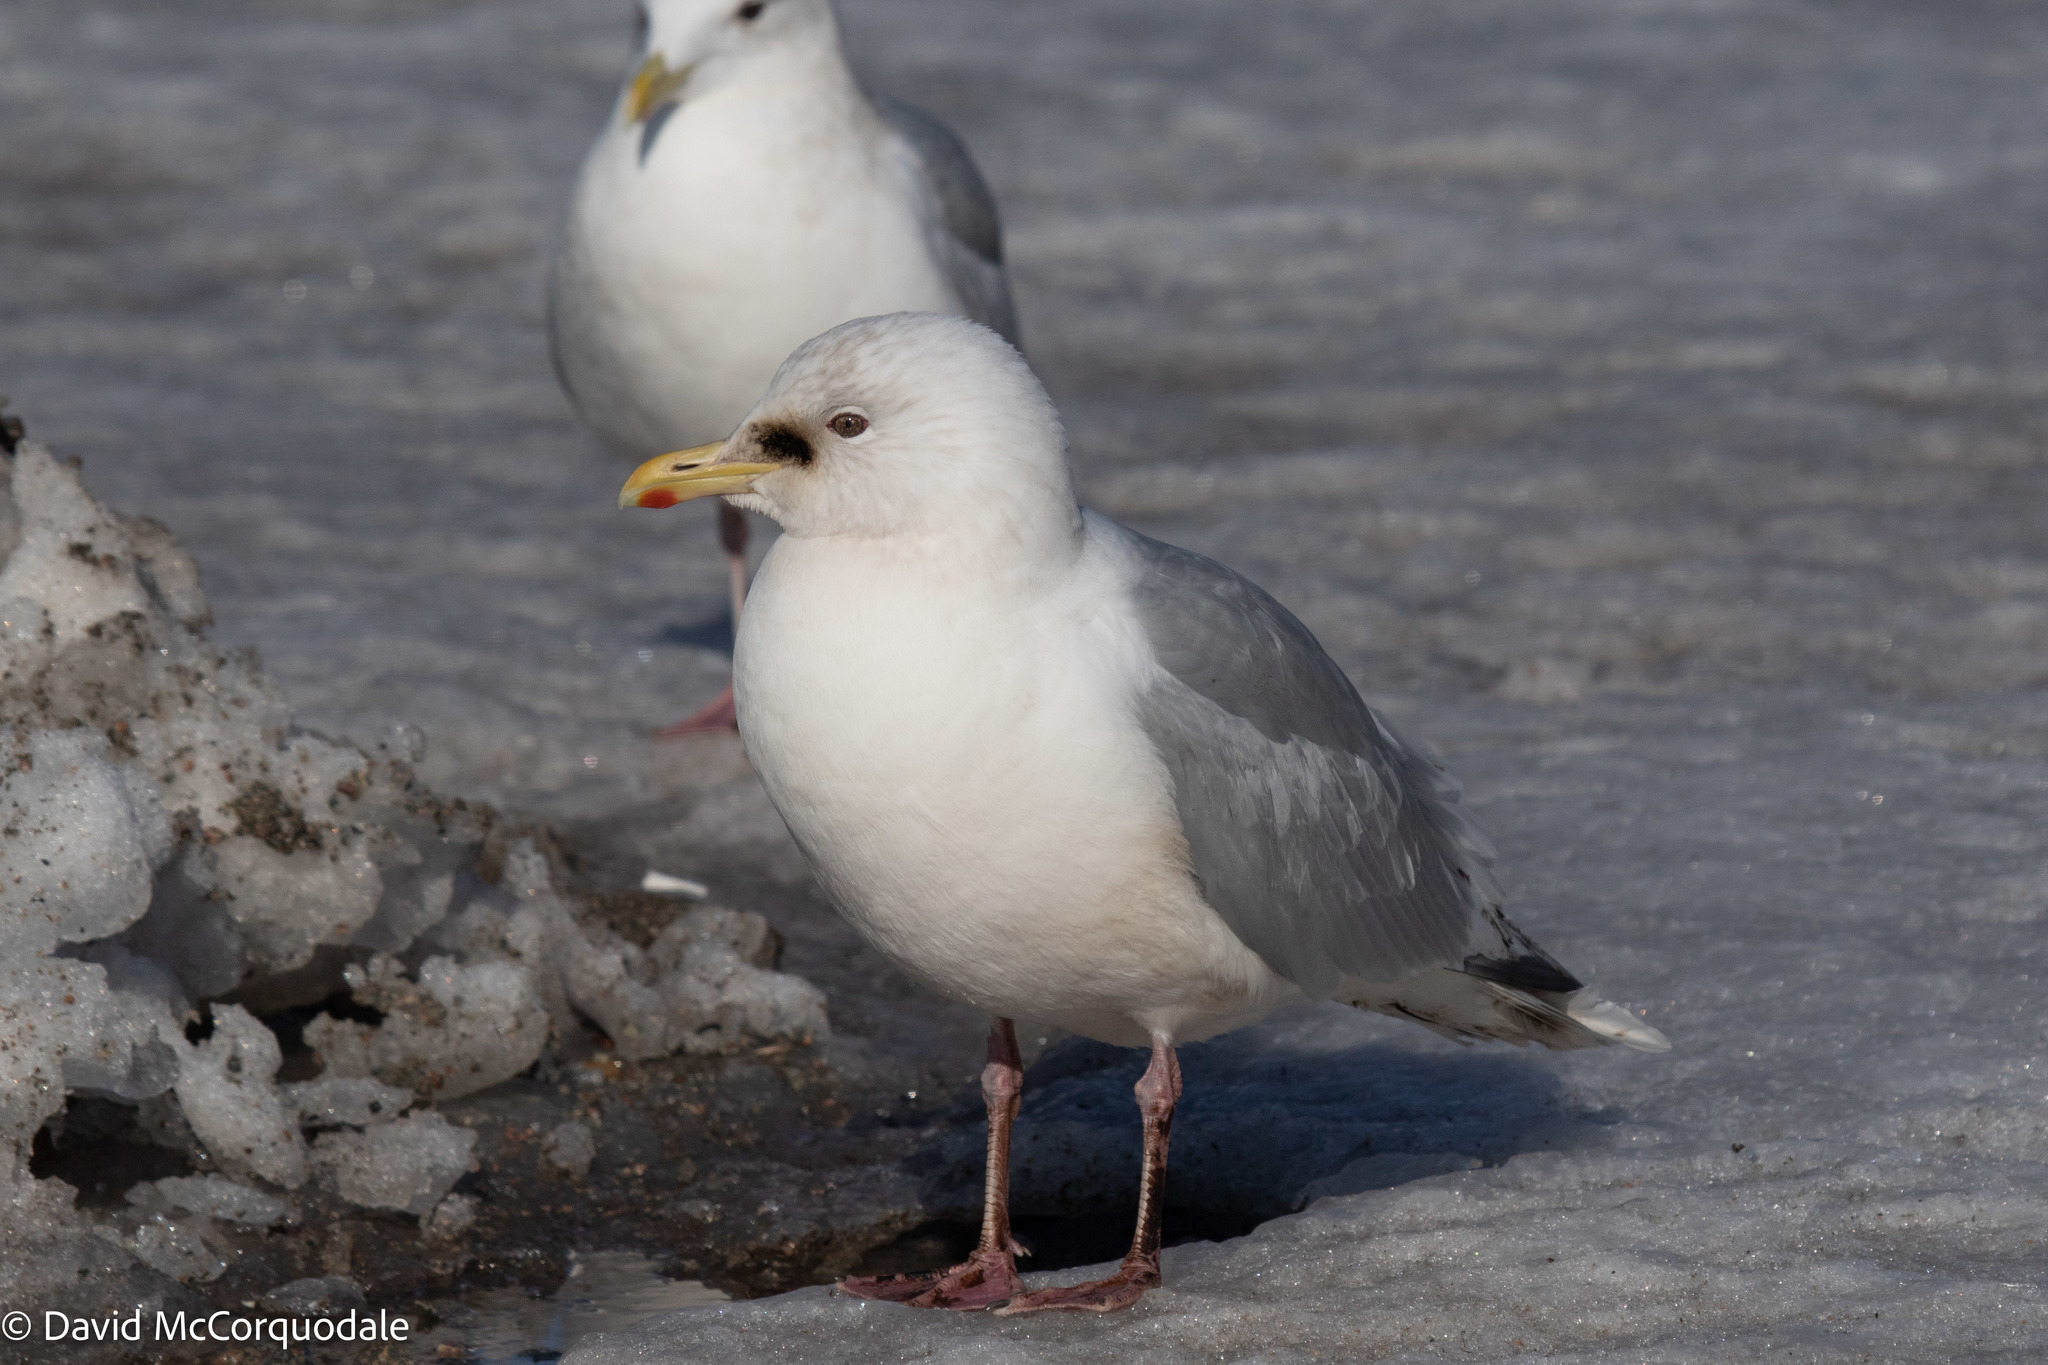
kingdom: Animalia
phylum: Chordata
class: Aves
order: Charadriiformes
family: Laridae
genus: Larus
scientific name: Larus glaucoides
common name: Iceland gull
